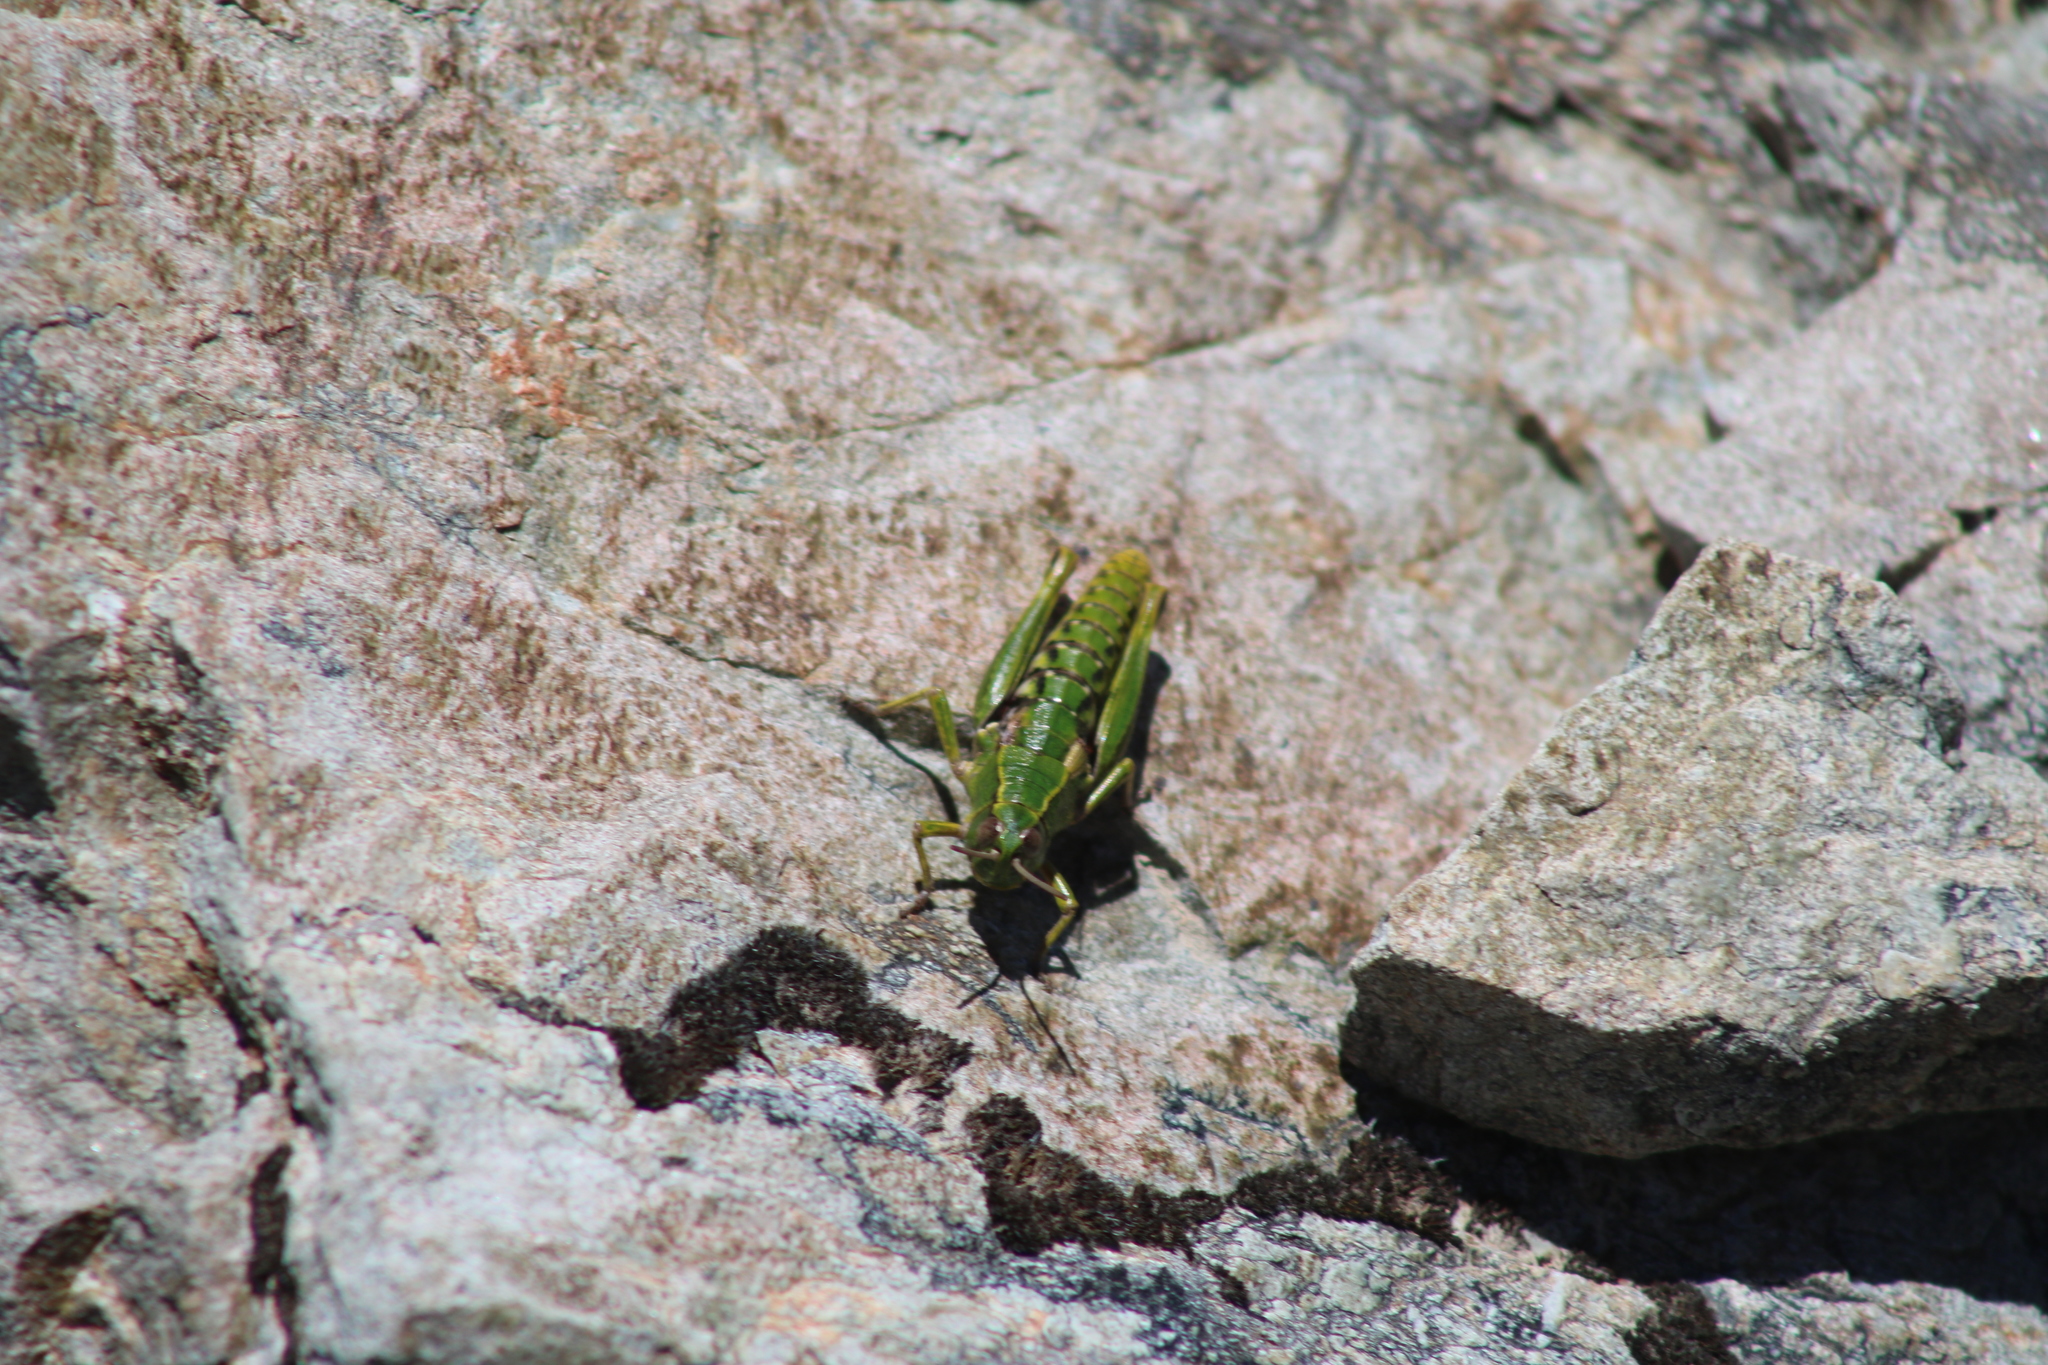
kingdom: Animalia
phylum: Arthropoda
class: Insecta
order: Orthoptera
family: Acrididae
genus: Sigaus
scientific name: Sigaus australis
